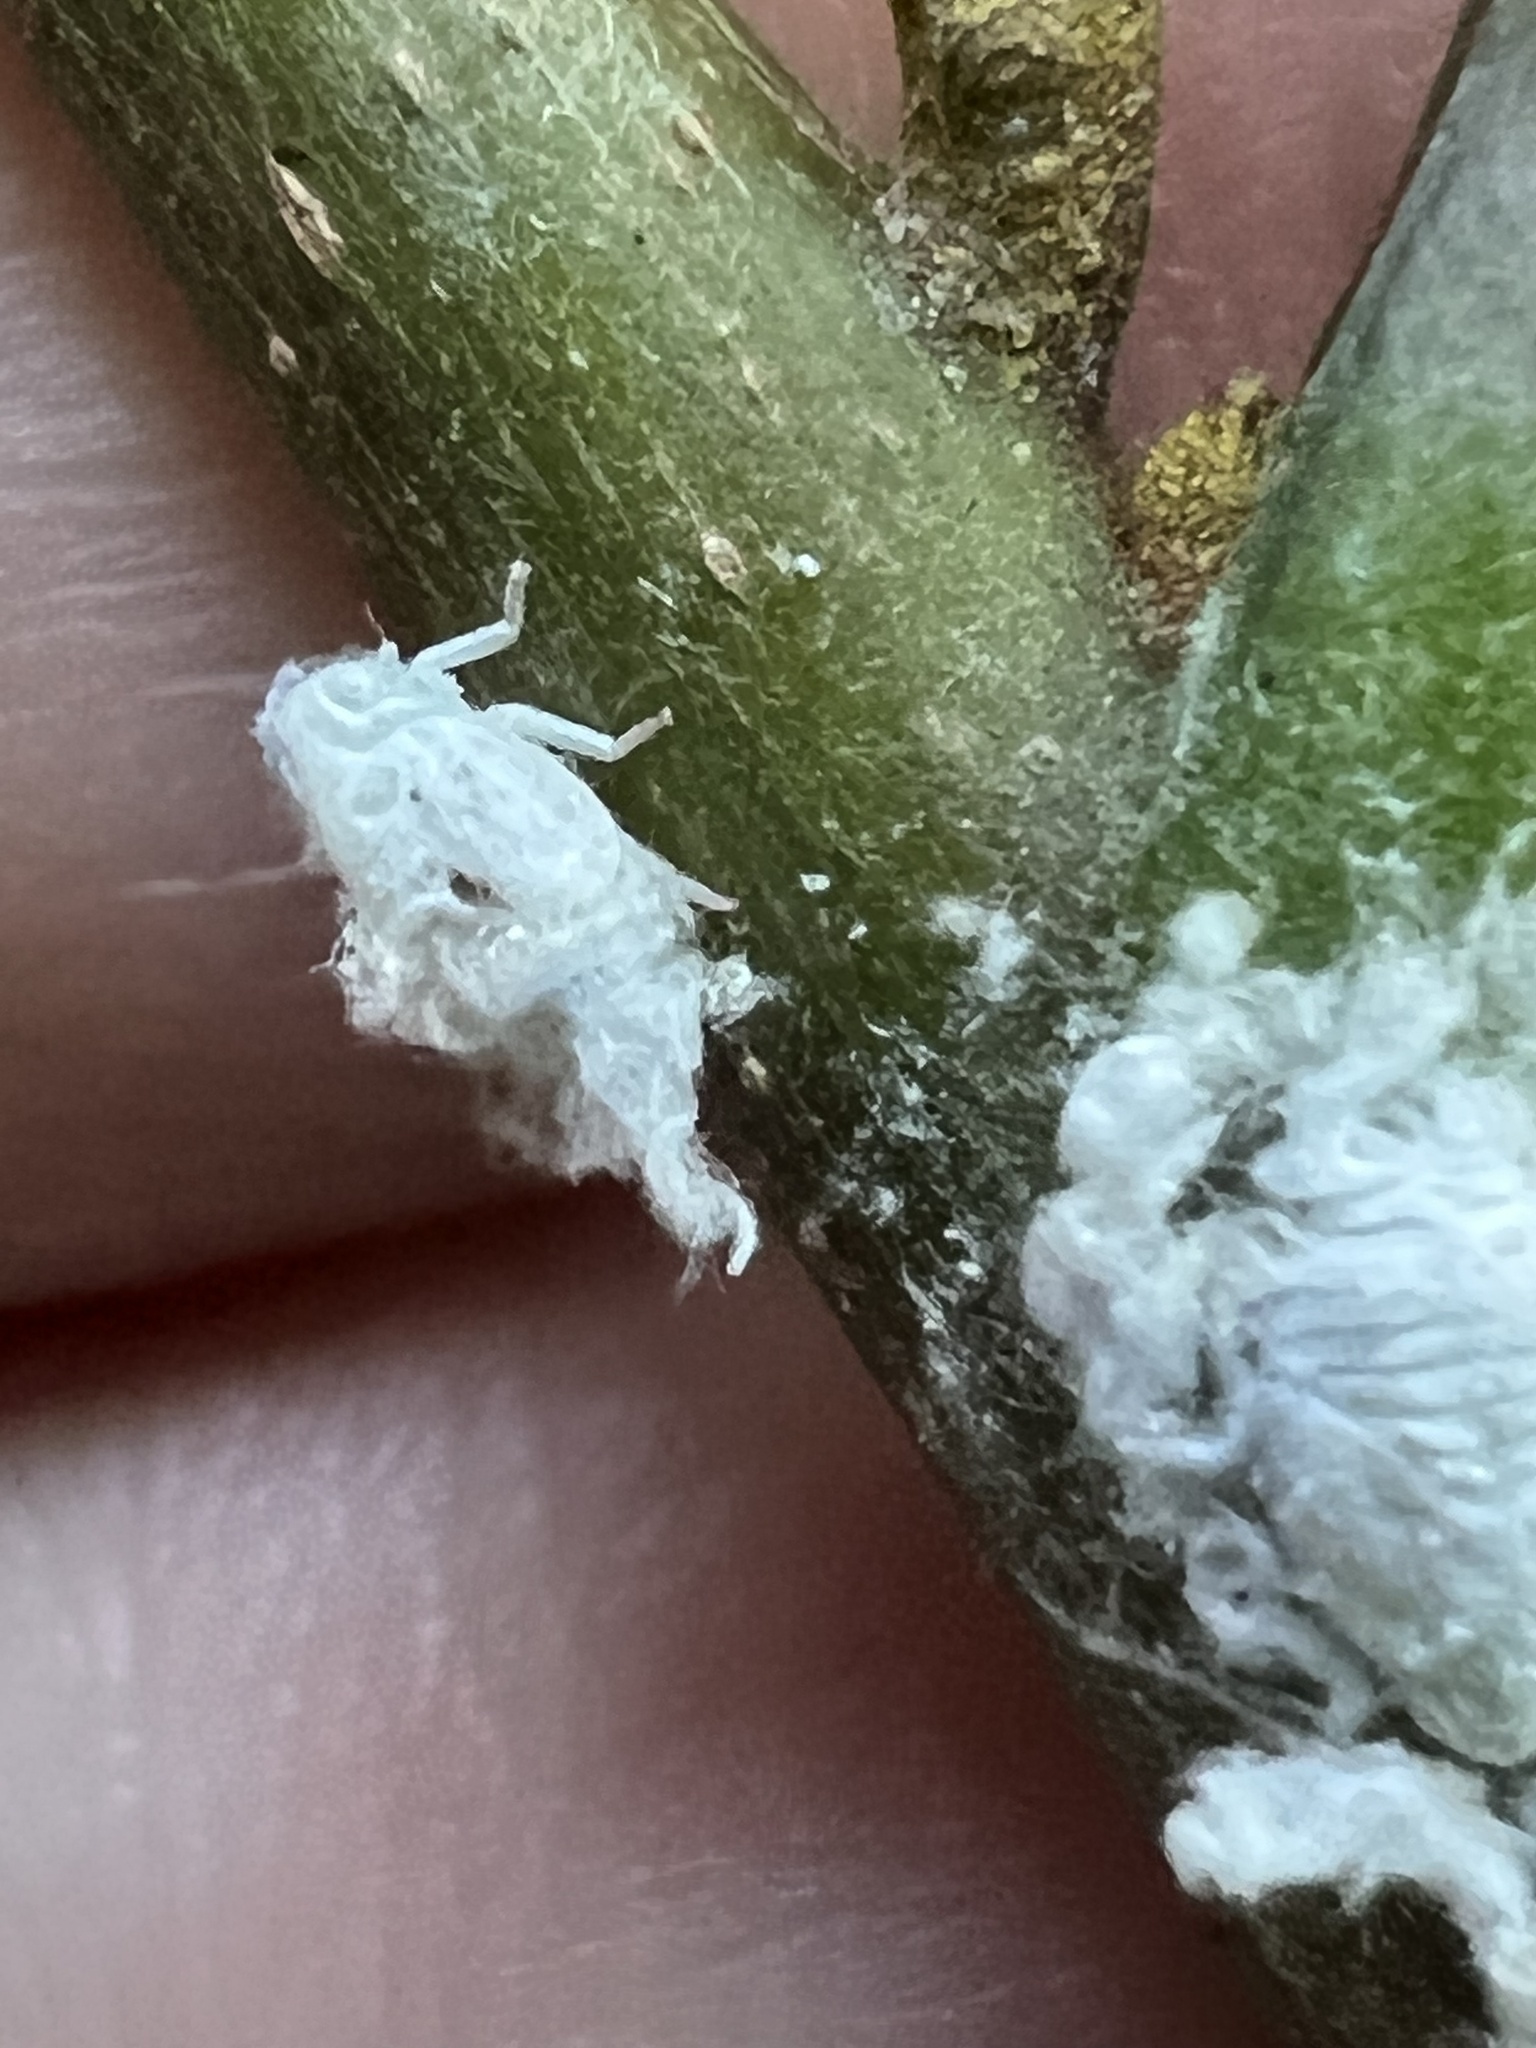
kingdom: Animalia
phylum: Arthropoda
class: Insecta
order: Hemiptera
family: Flatidae
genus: Flatormenis
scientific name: Flatormenis proxima
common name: Northern flatid planthopper
